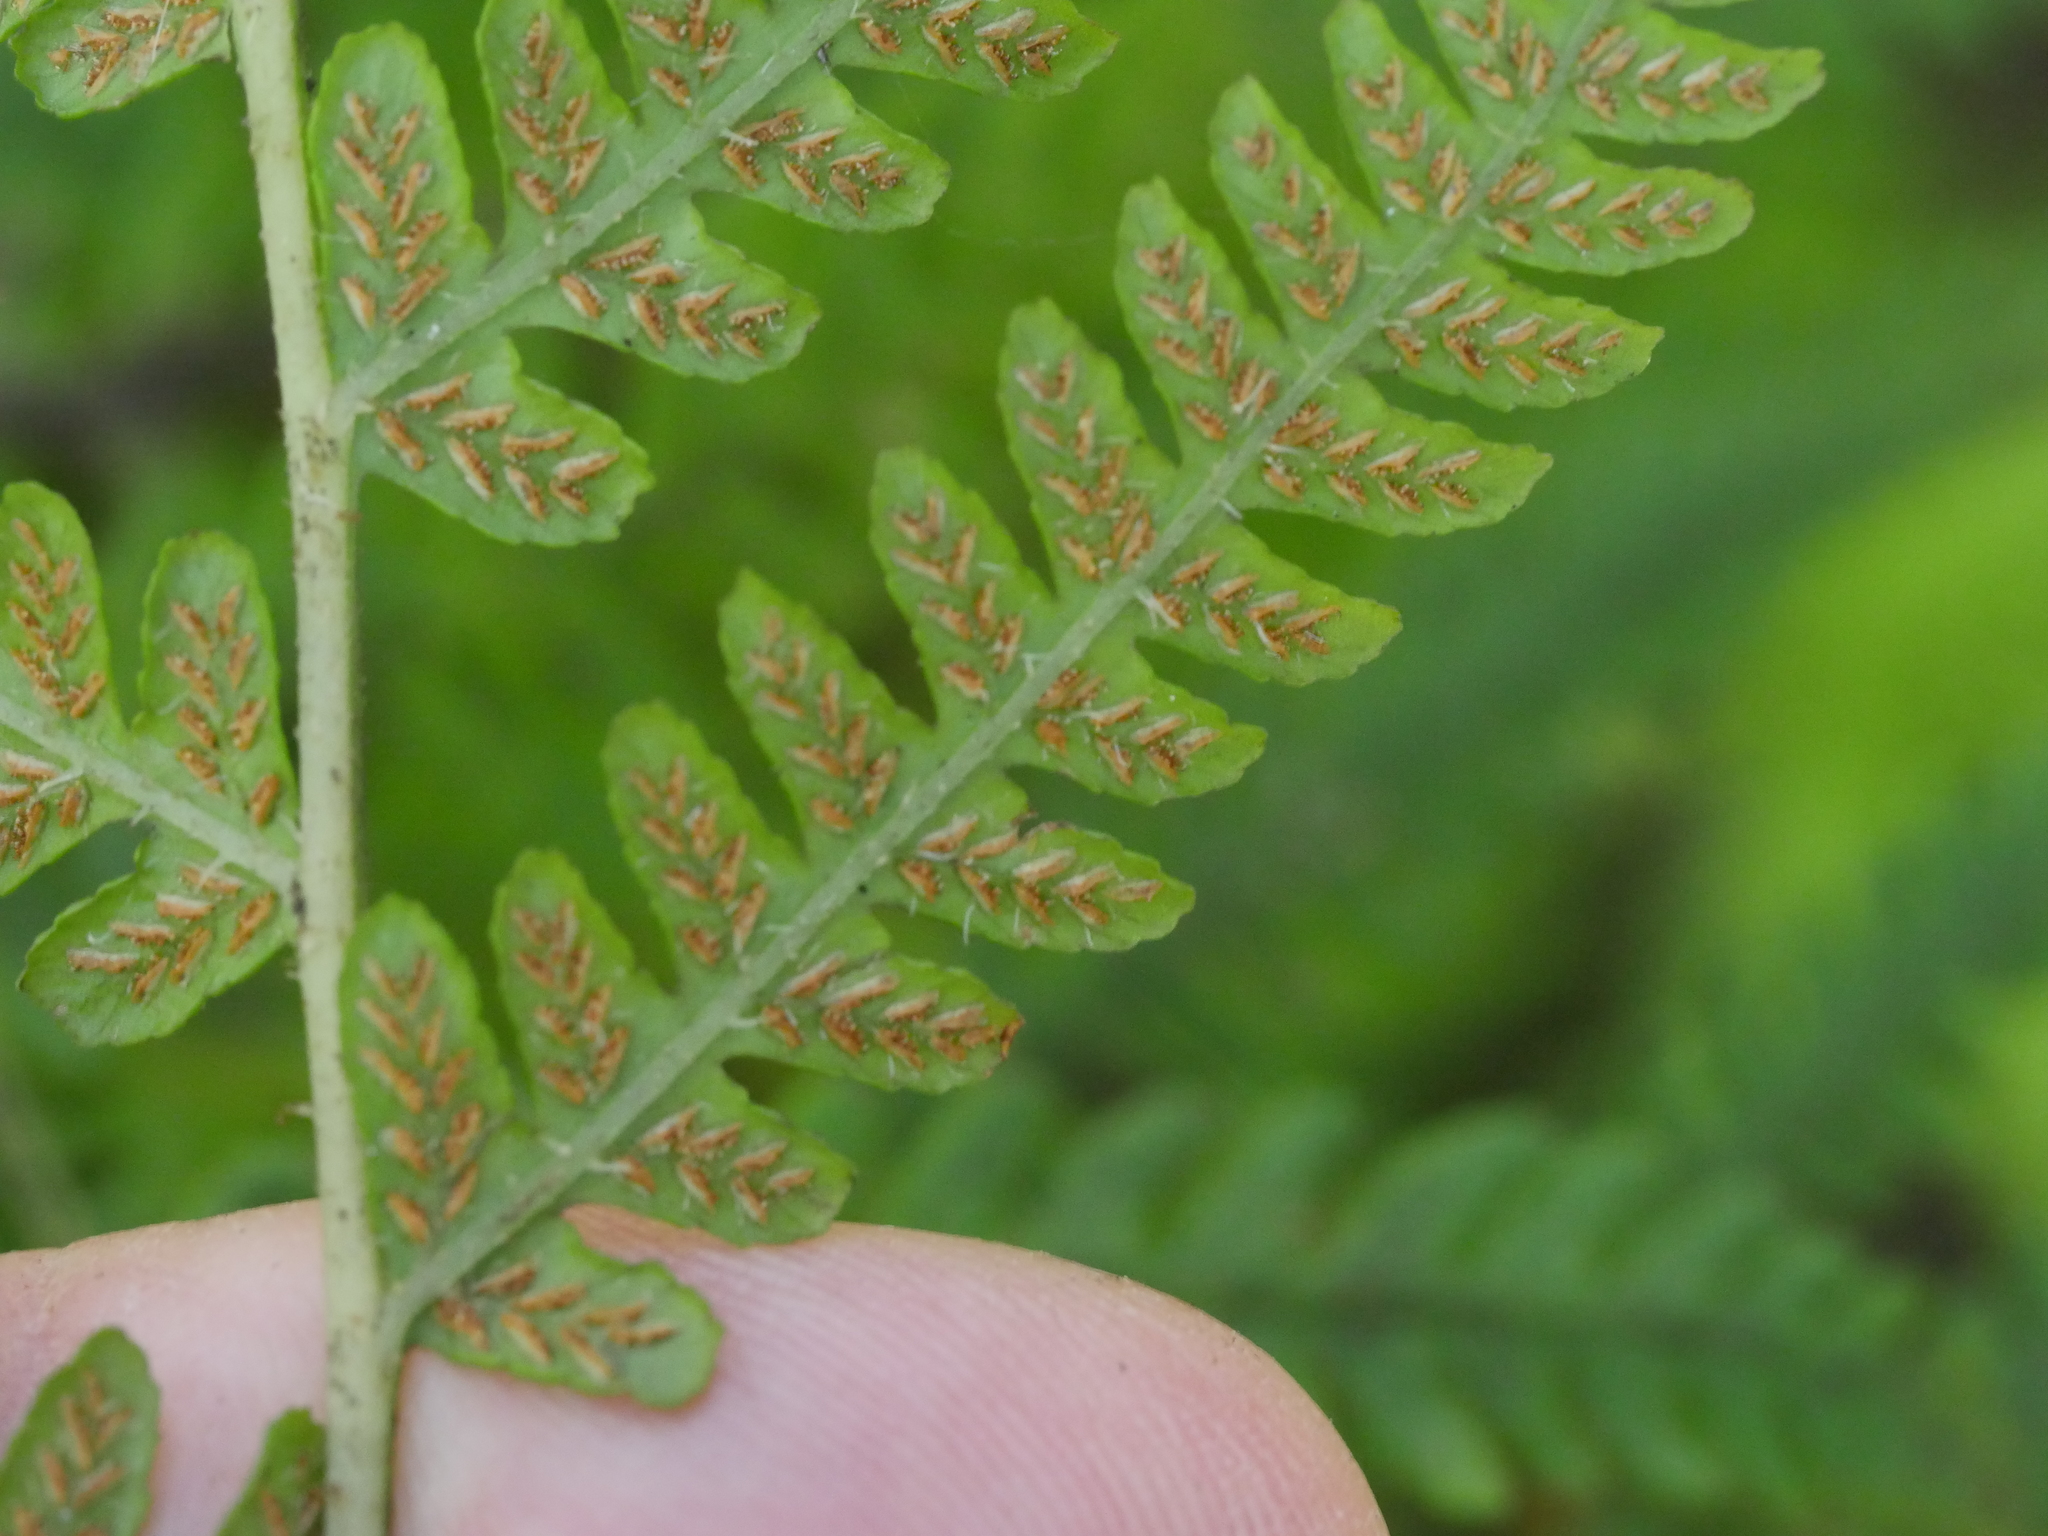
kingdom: Plantae
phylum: Tracheophyta
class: Polypodiopsida
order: Polypodiales
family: Athyriaceae
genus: Deparia
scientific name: Deparia petersenii
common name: Japanese false spleenwort
